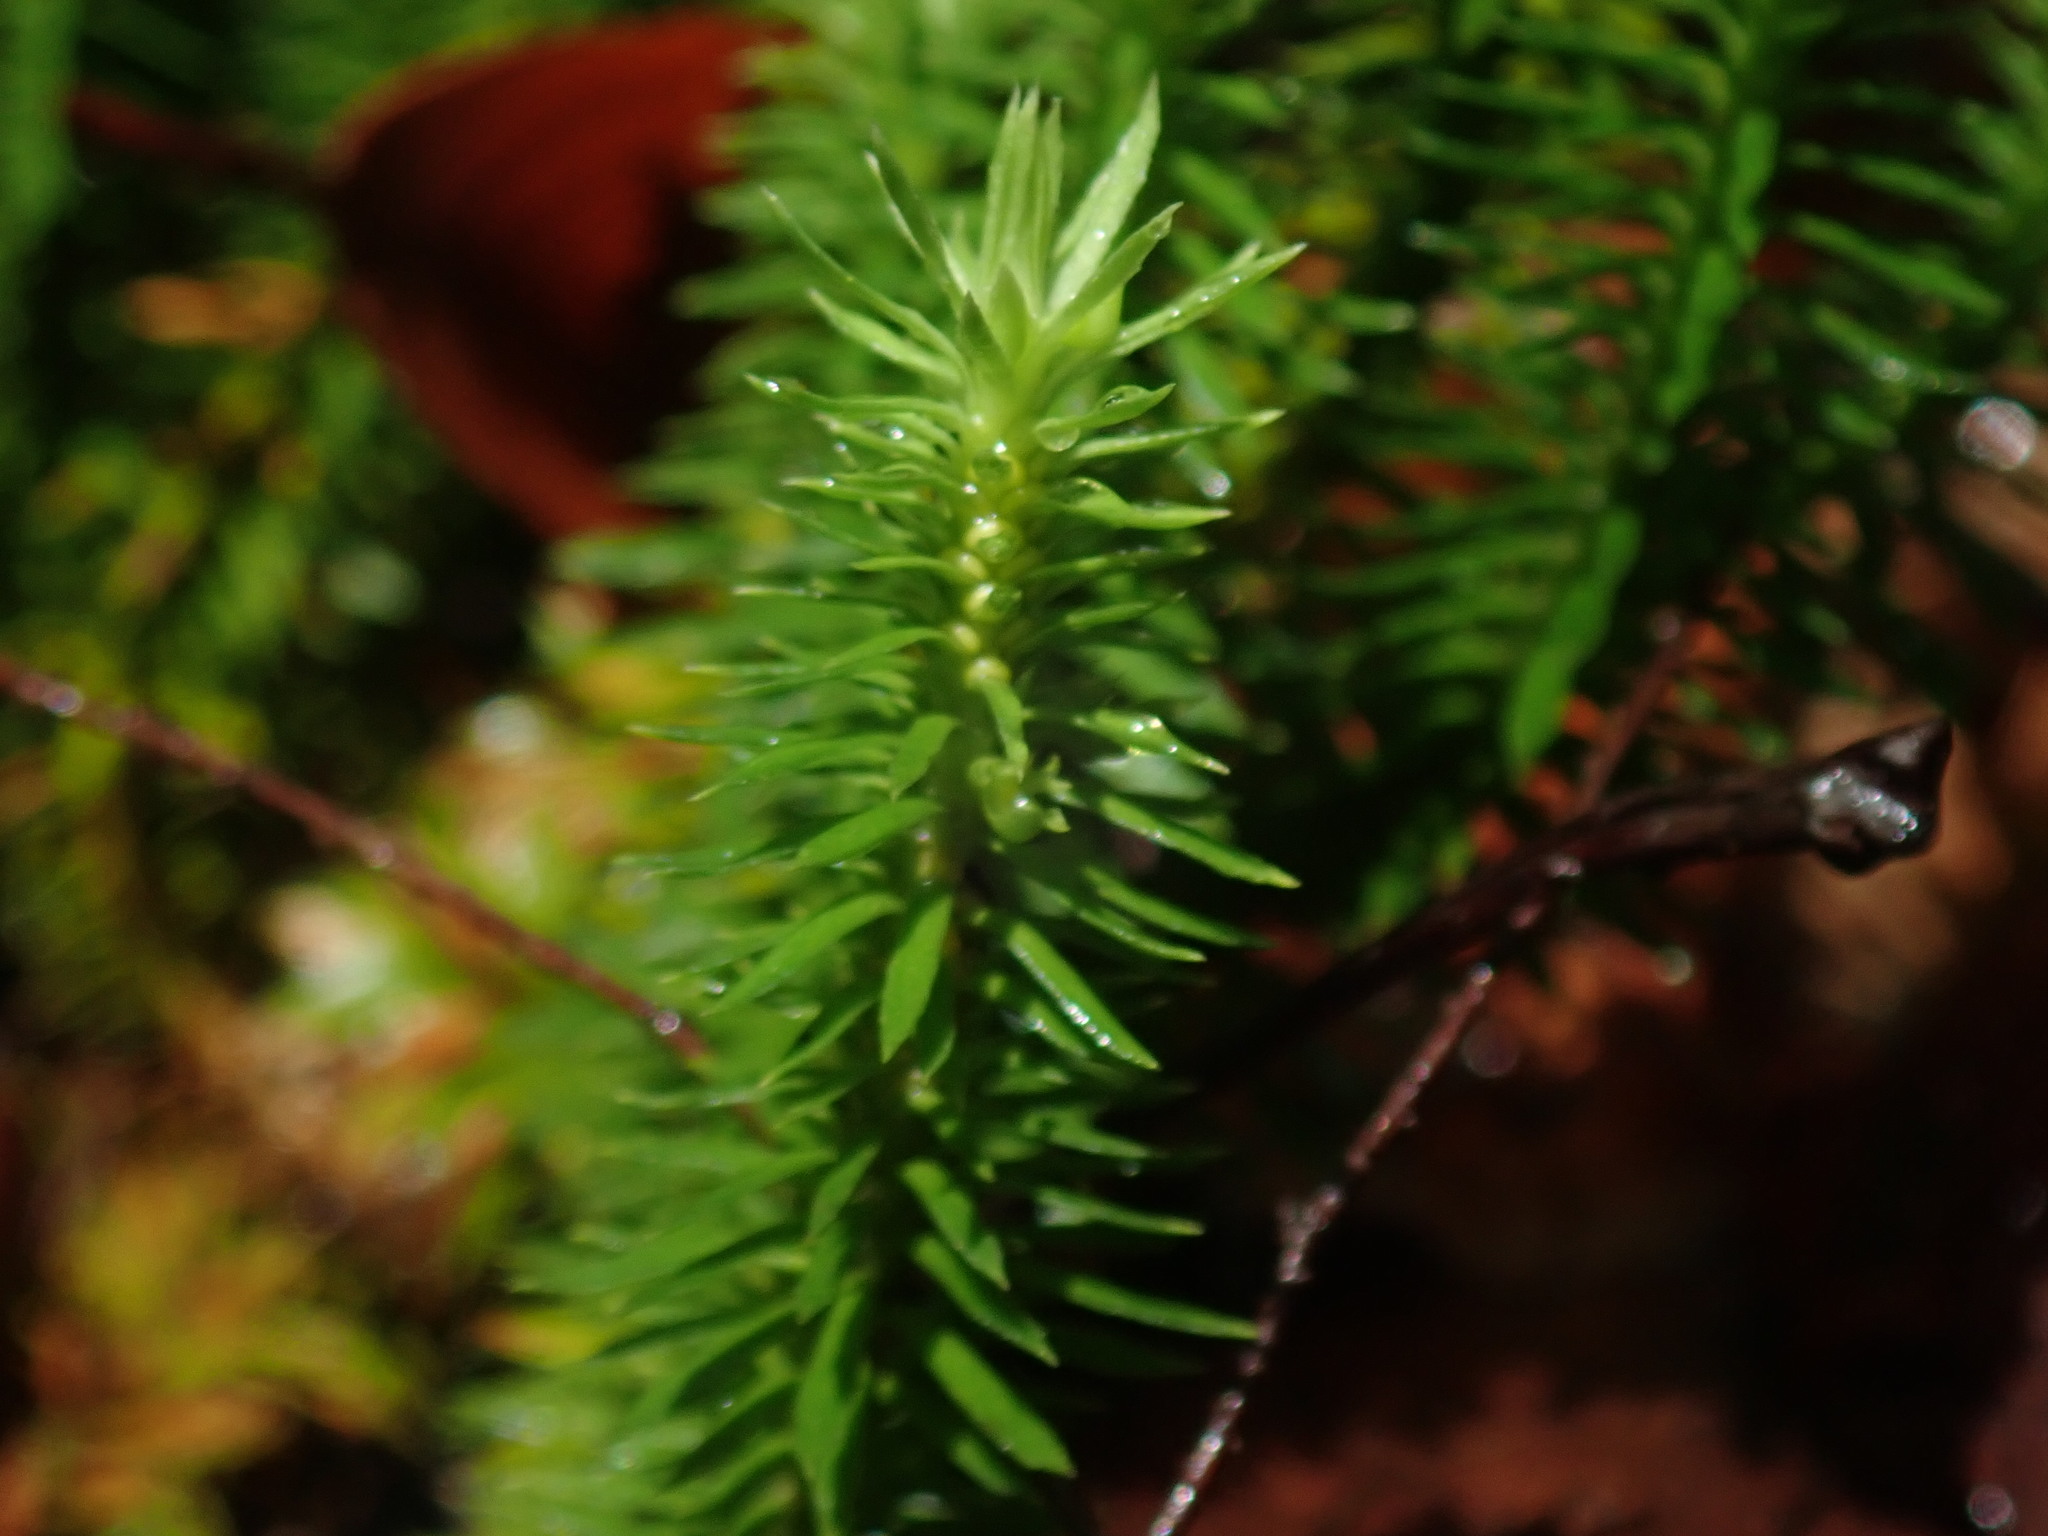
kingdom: Plantae
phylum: Tracheophyta
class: Lycopodiopsida
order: Lycopodiales
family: Lycopodiaceae
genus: Huperzia
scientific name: Huperzia lucidula
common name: Shining clubmoss
